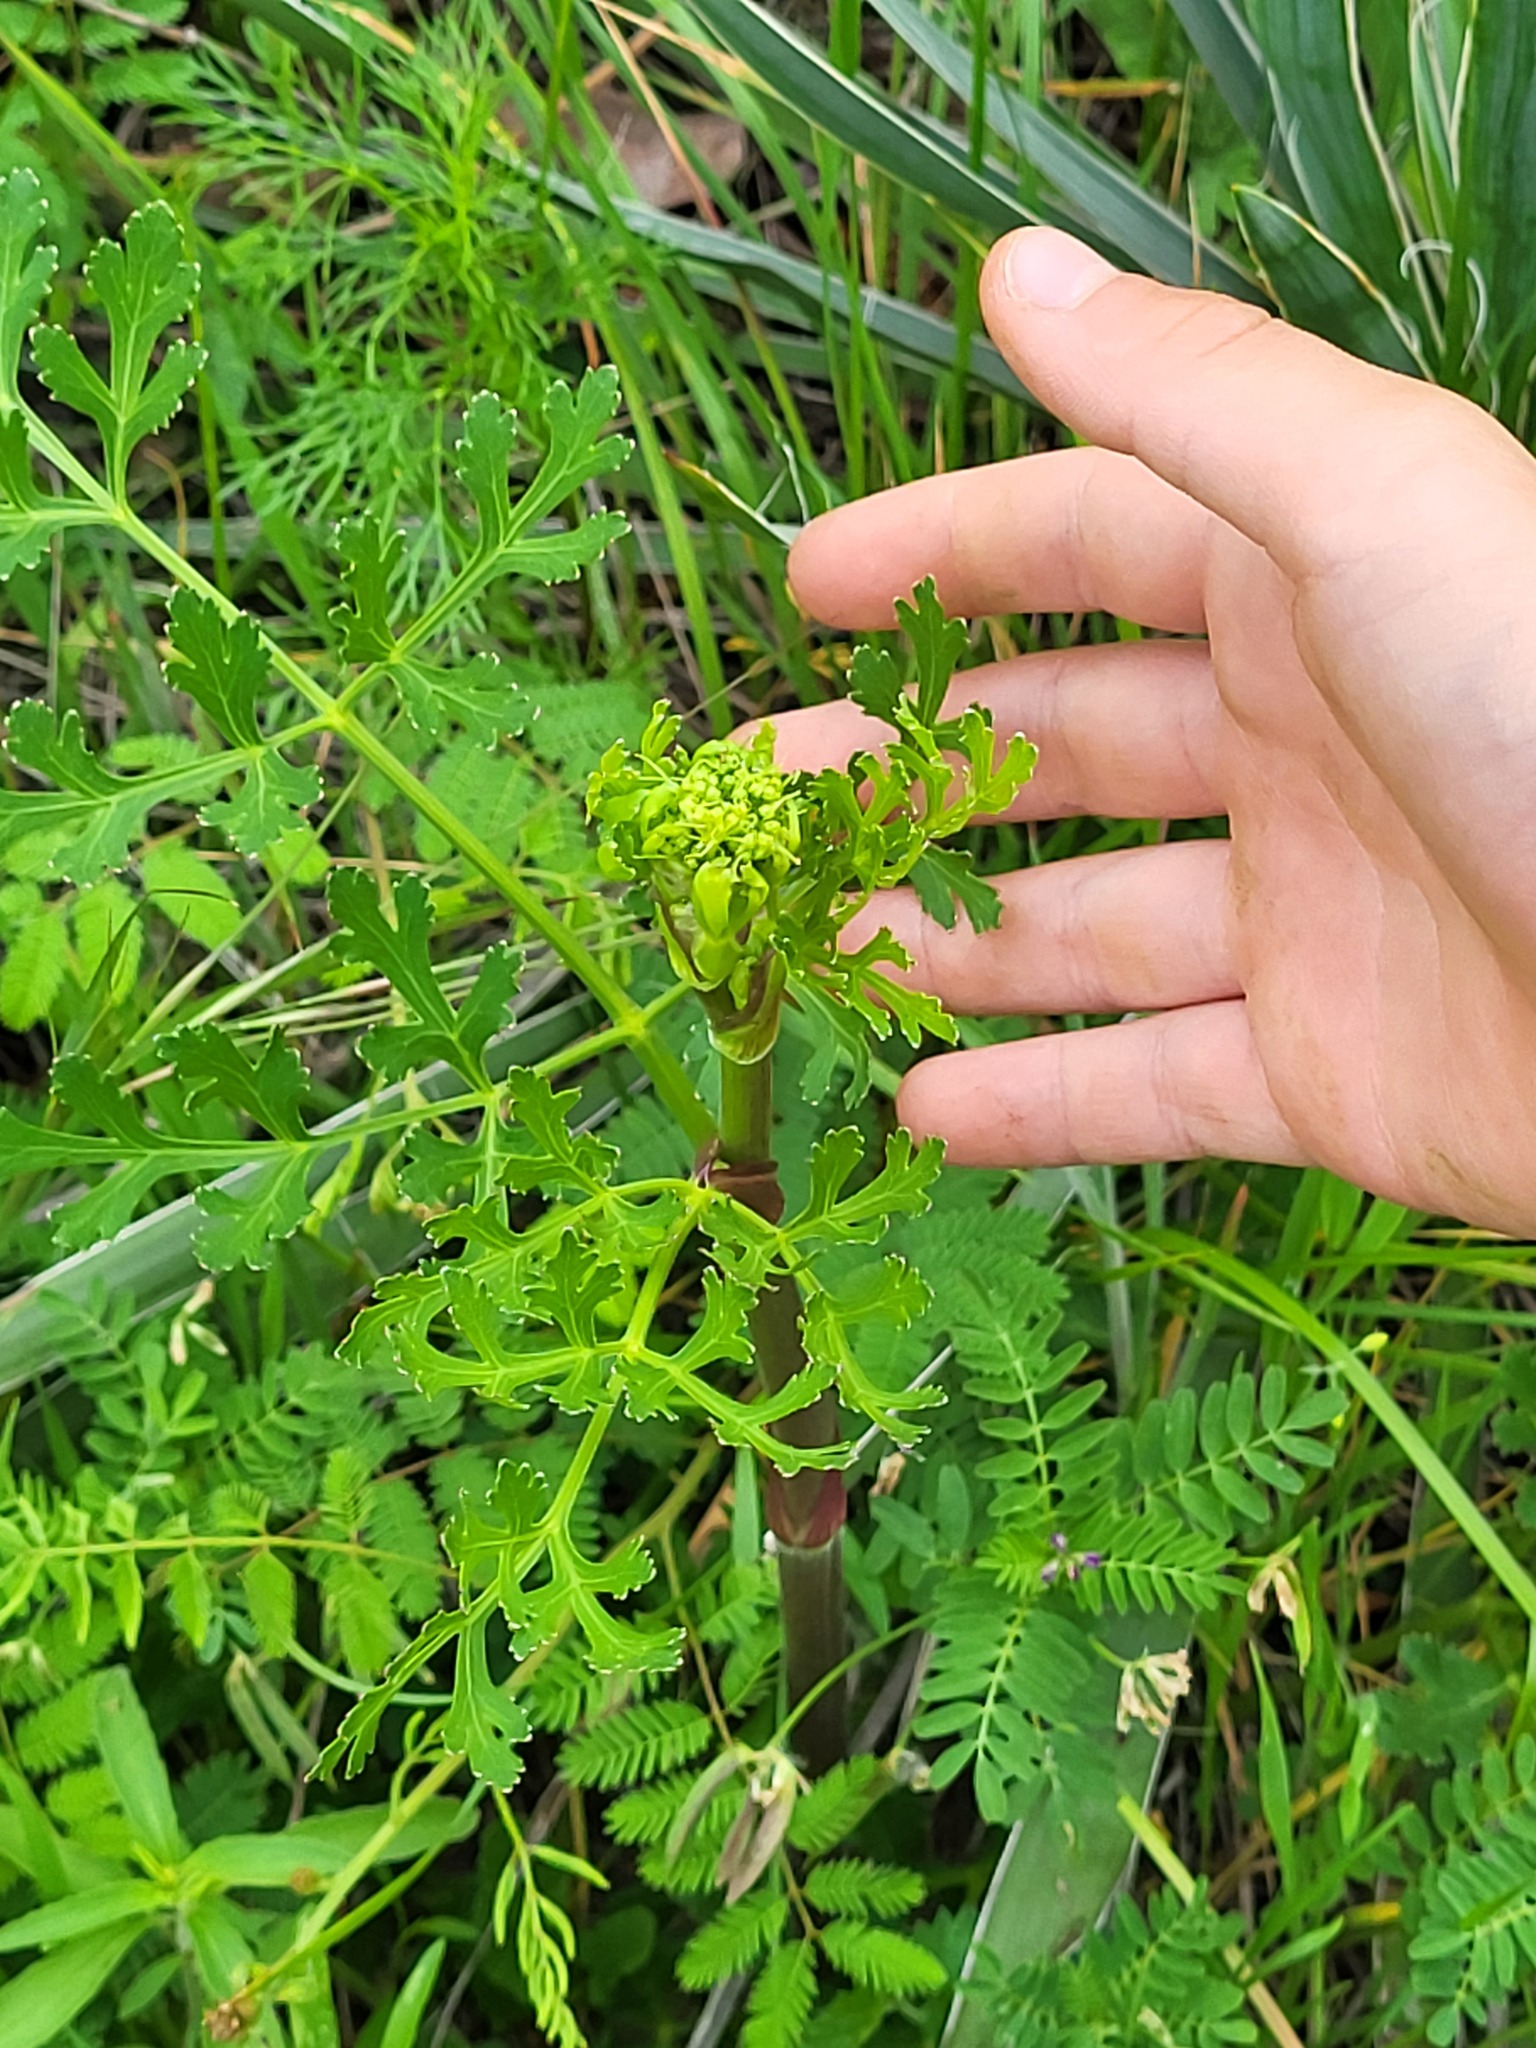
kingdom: Plantae
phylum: Tracheophyta
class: Magnoliopsida
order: Apiales
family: Apiaceae
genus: Polytaenia
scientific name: Polytaenia texana
